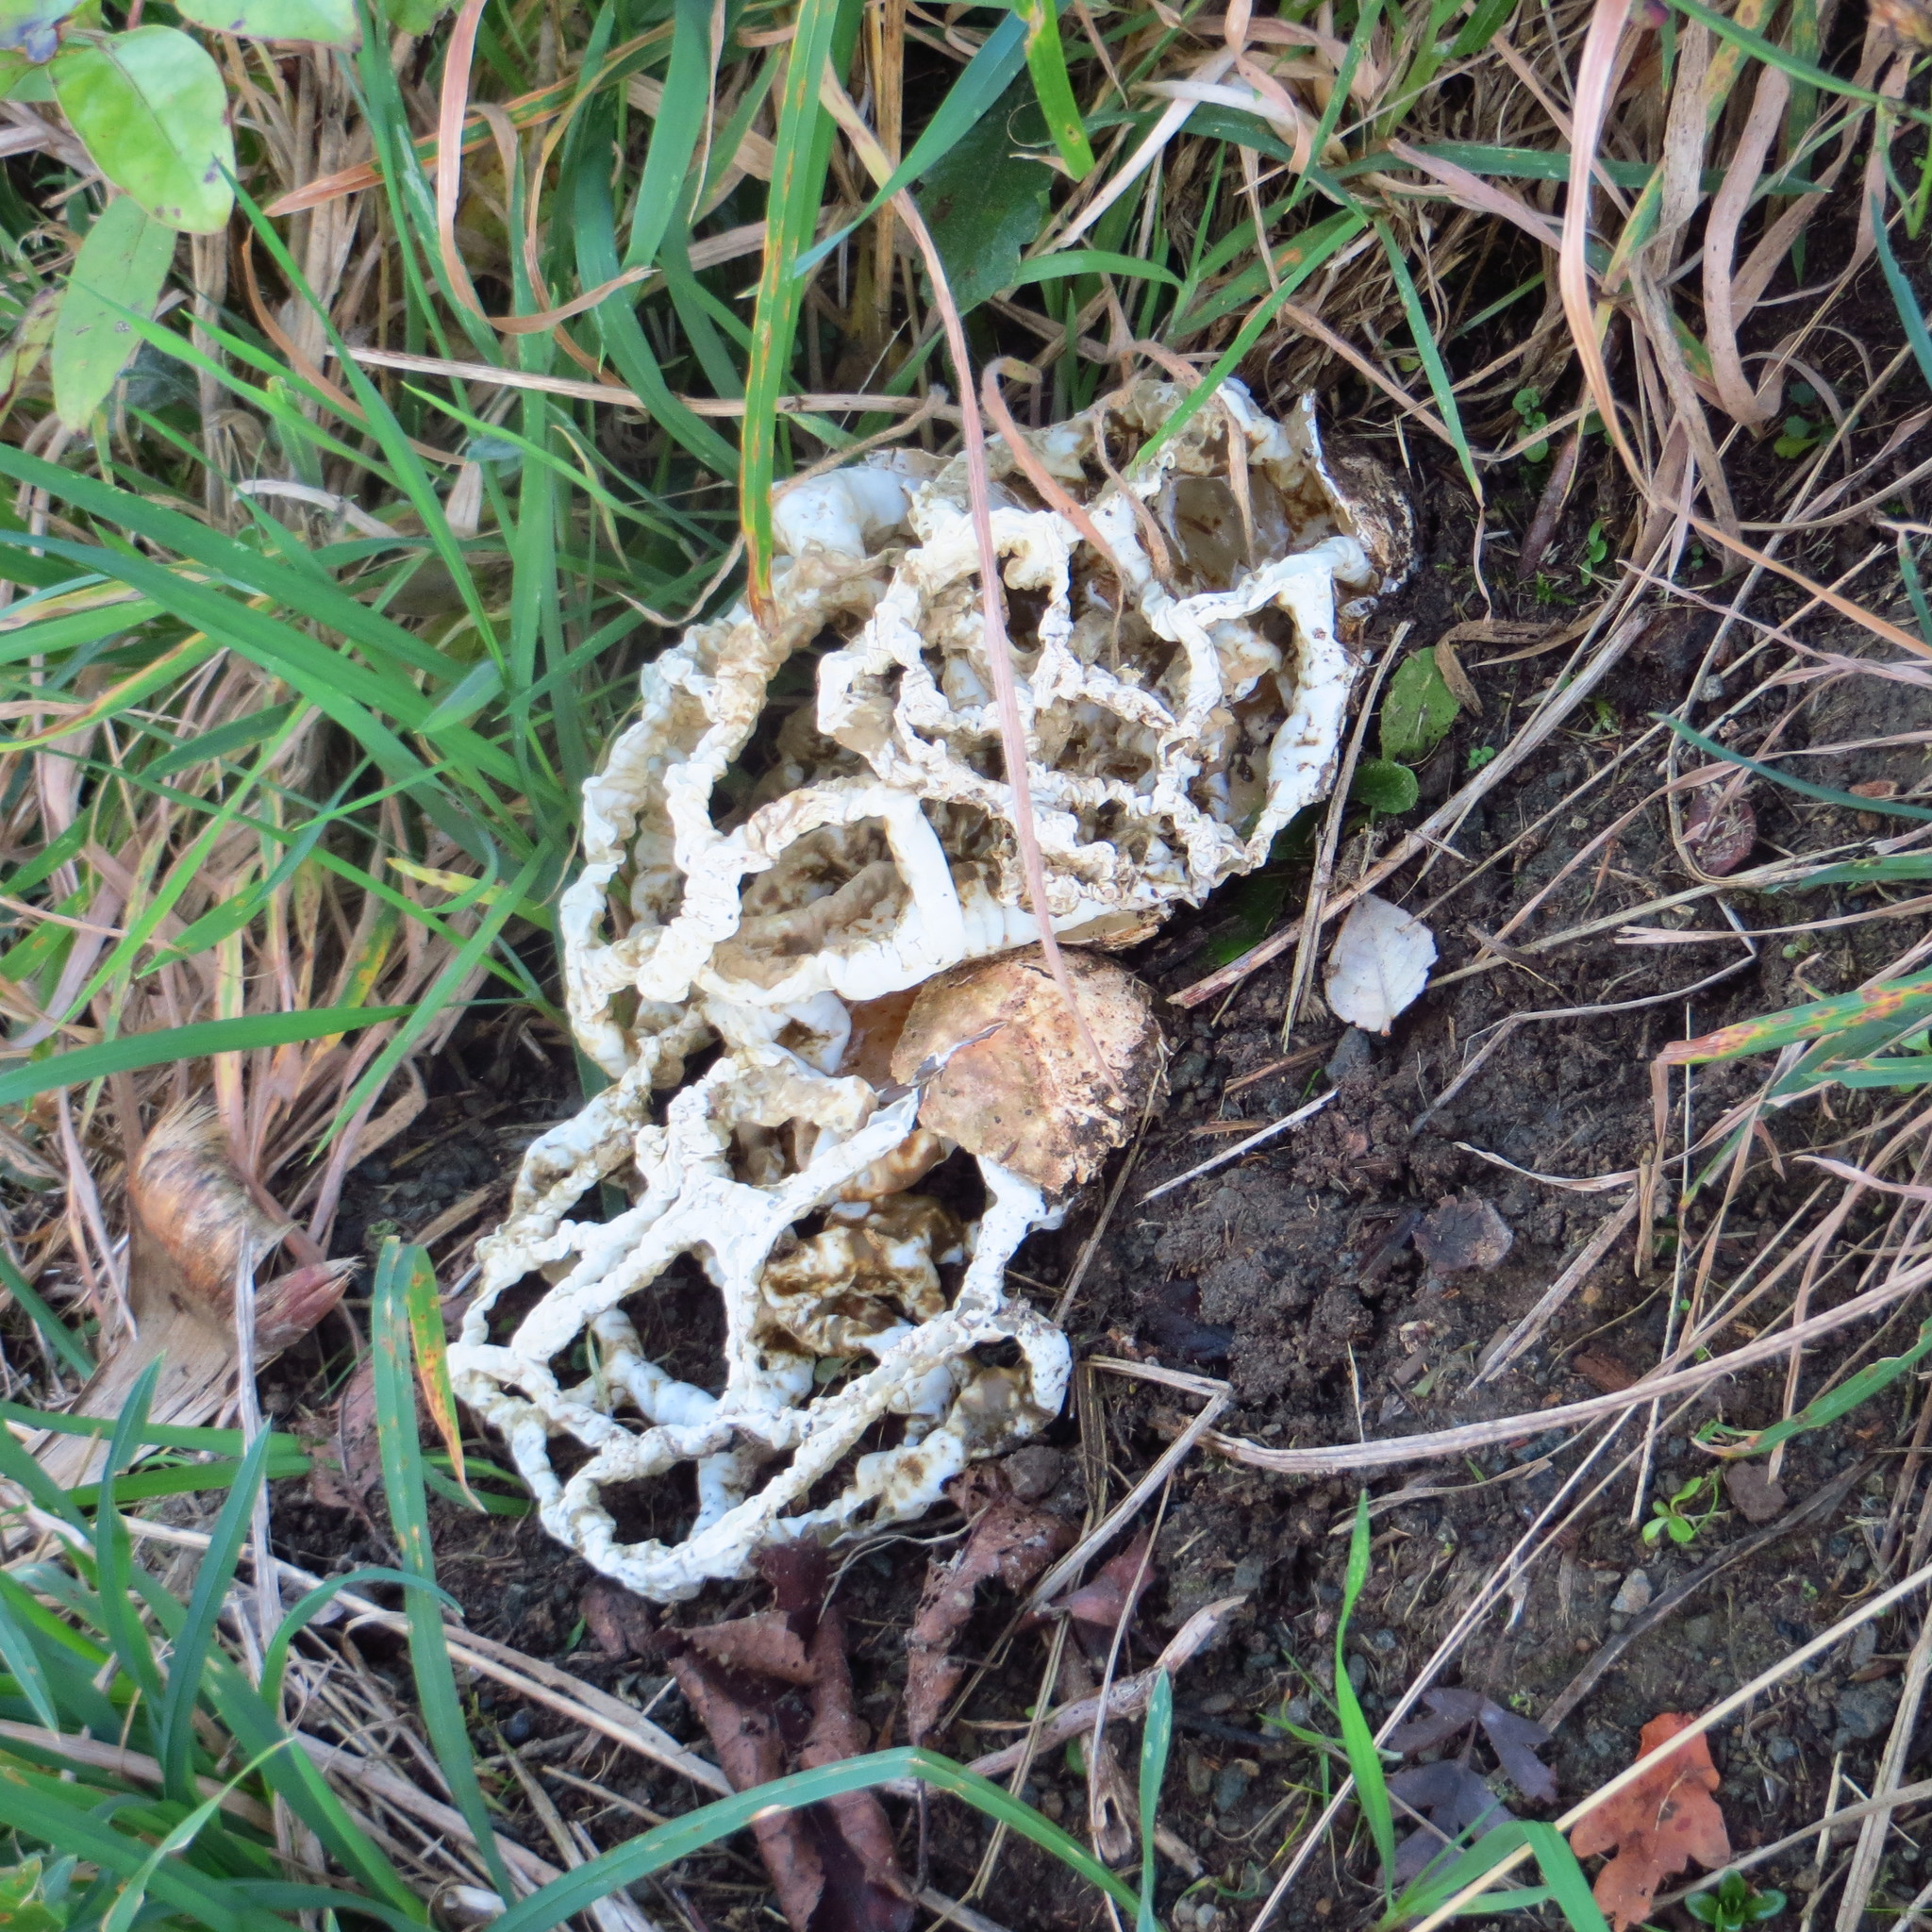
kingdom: Fungi
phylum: Basidiomycota
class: Agaricomycetes
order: Phallales
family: Phallaceae
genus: Ileodictyon
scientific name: Ileodictyon cibarium
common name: Basket fungus
